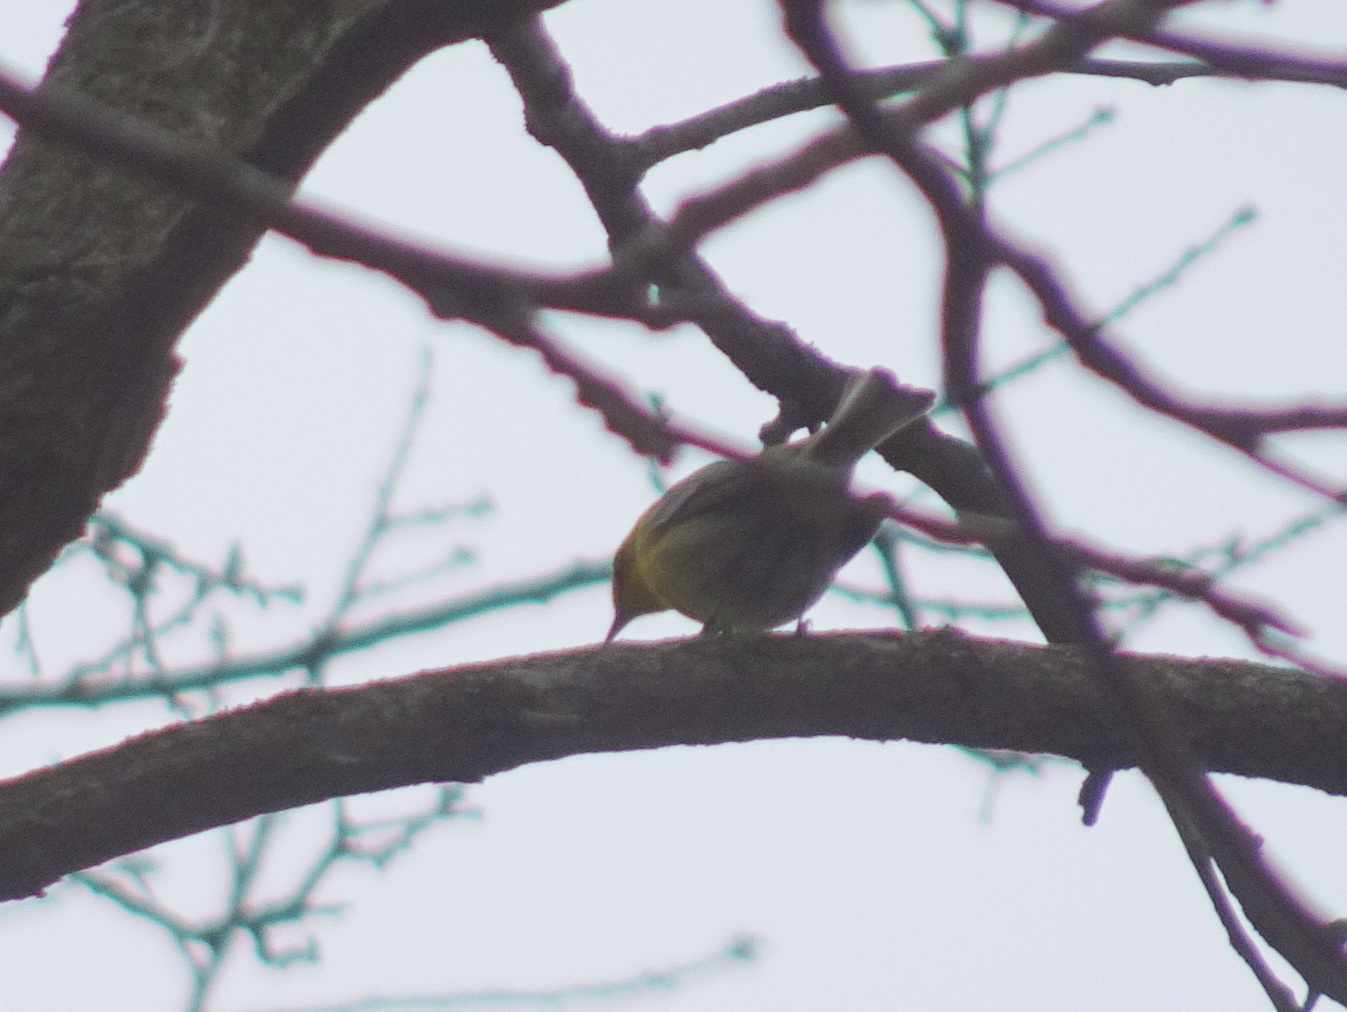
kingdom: Animalia
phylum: Chordata
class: Aves
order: Passeriformes
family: Parulidae
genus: Setophaga
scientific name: Setophaga pinus
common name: Pine warbler
